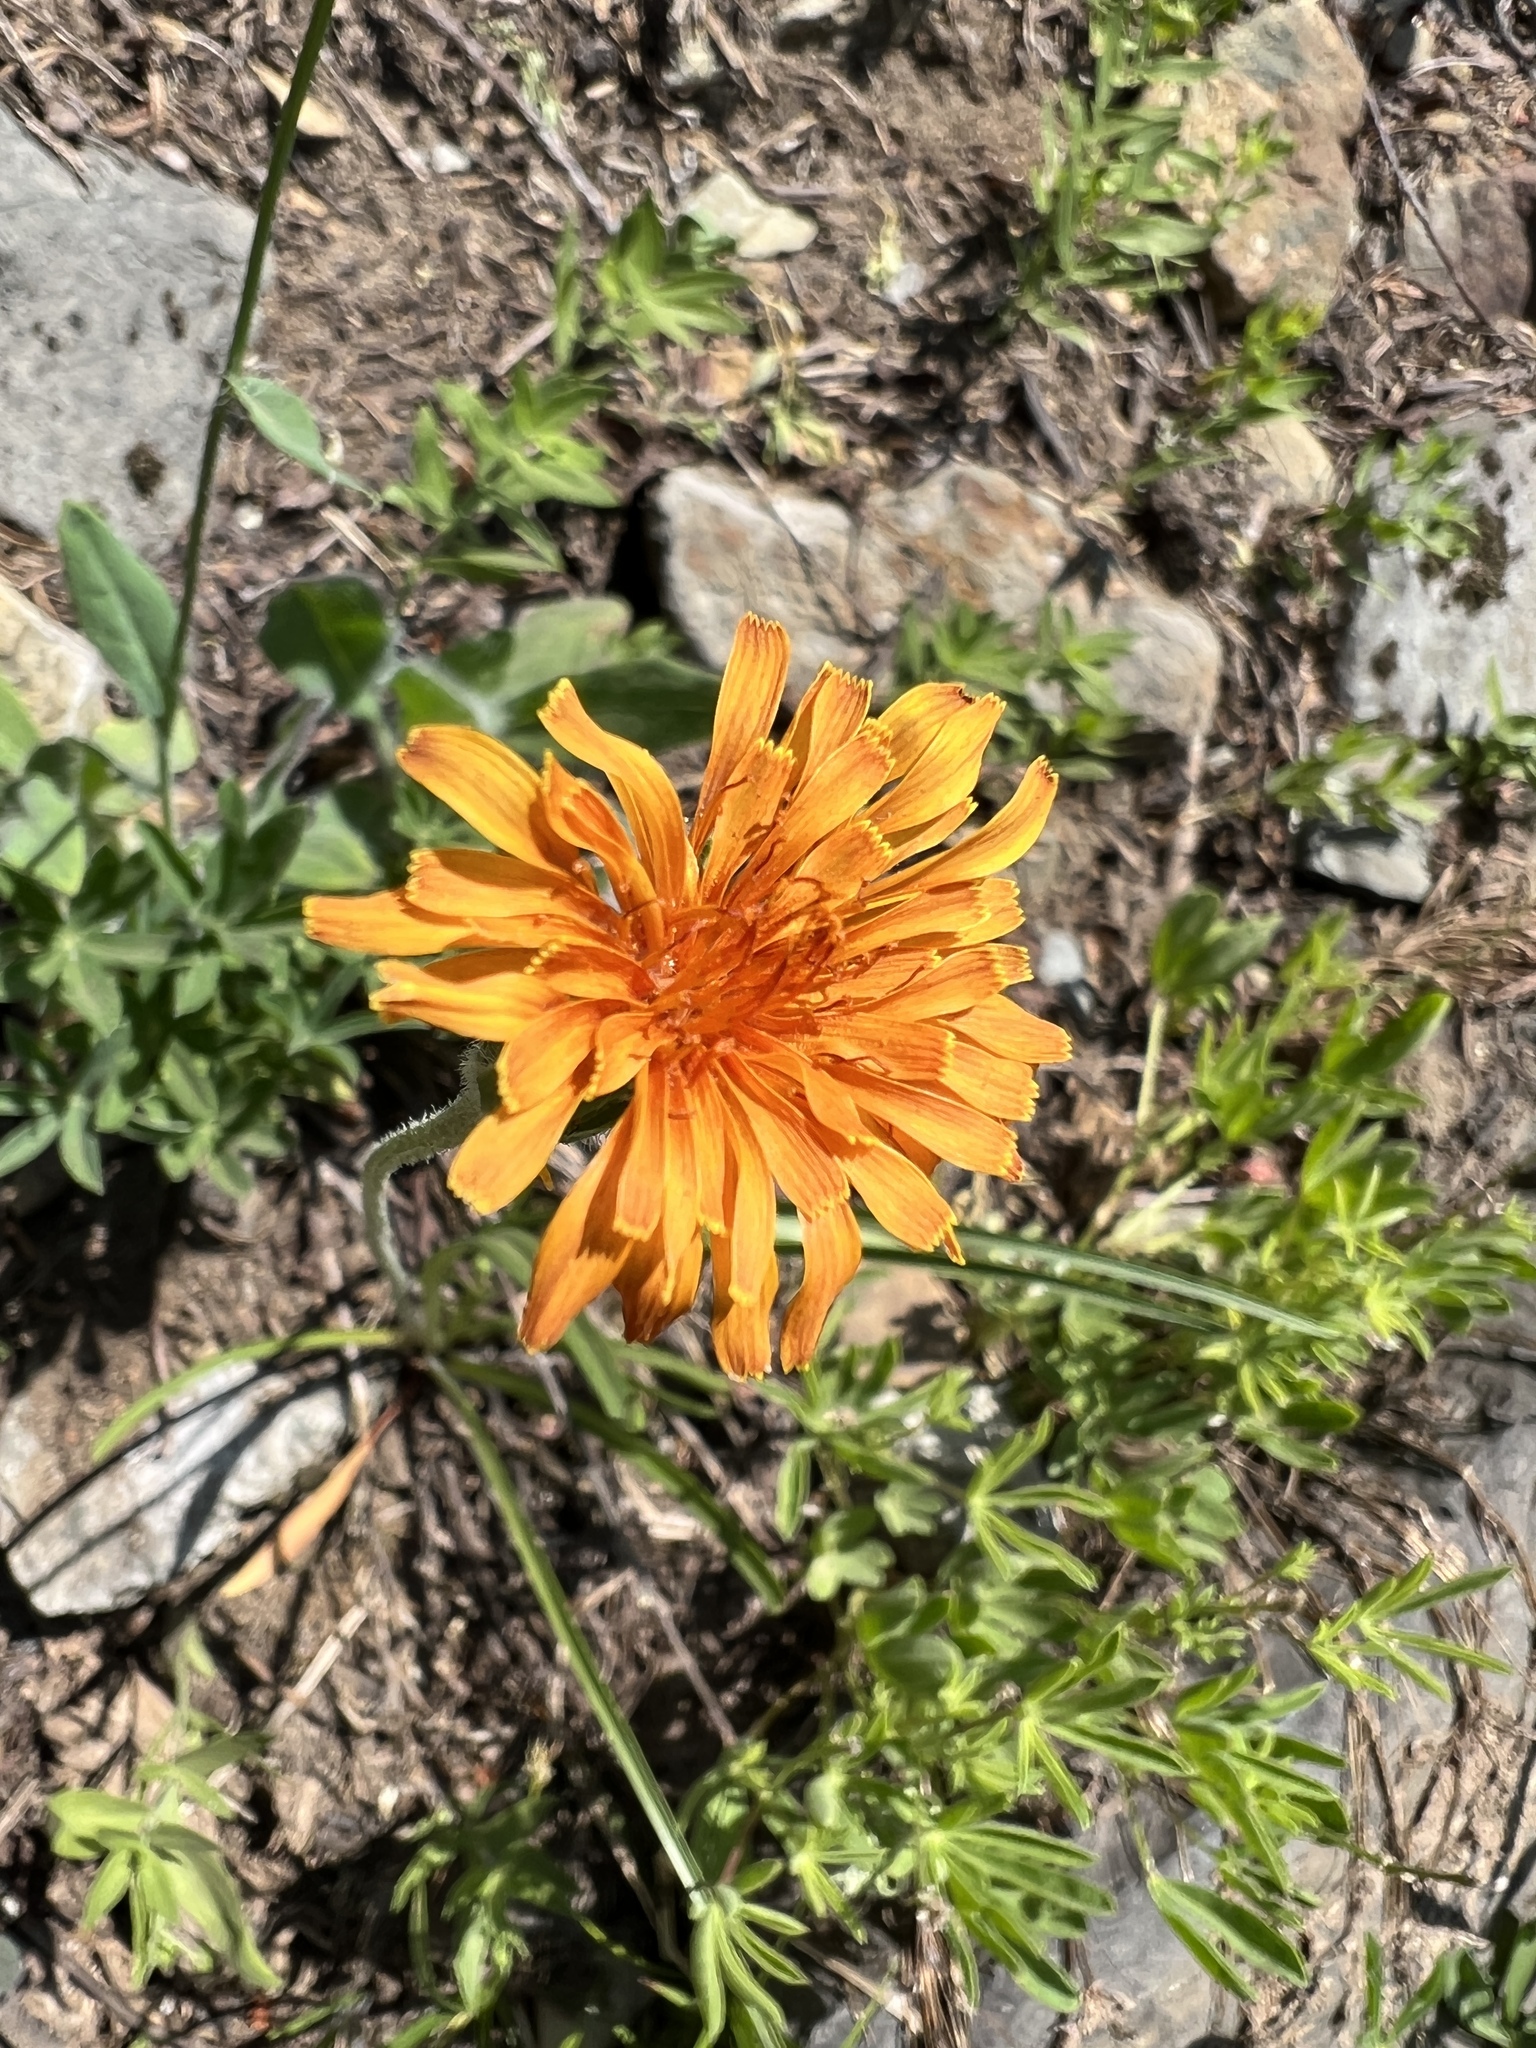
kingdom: Plantae
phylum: Tracheophyta
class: Magnoliopsida
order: Asterales
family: Asteraceae
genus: Agoseris
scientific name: Agoseris aurantiaca
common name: Mountain agoseris
